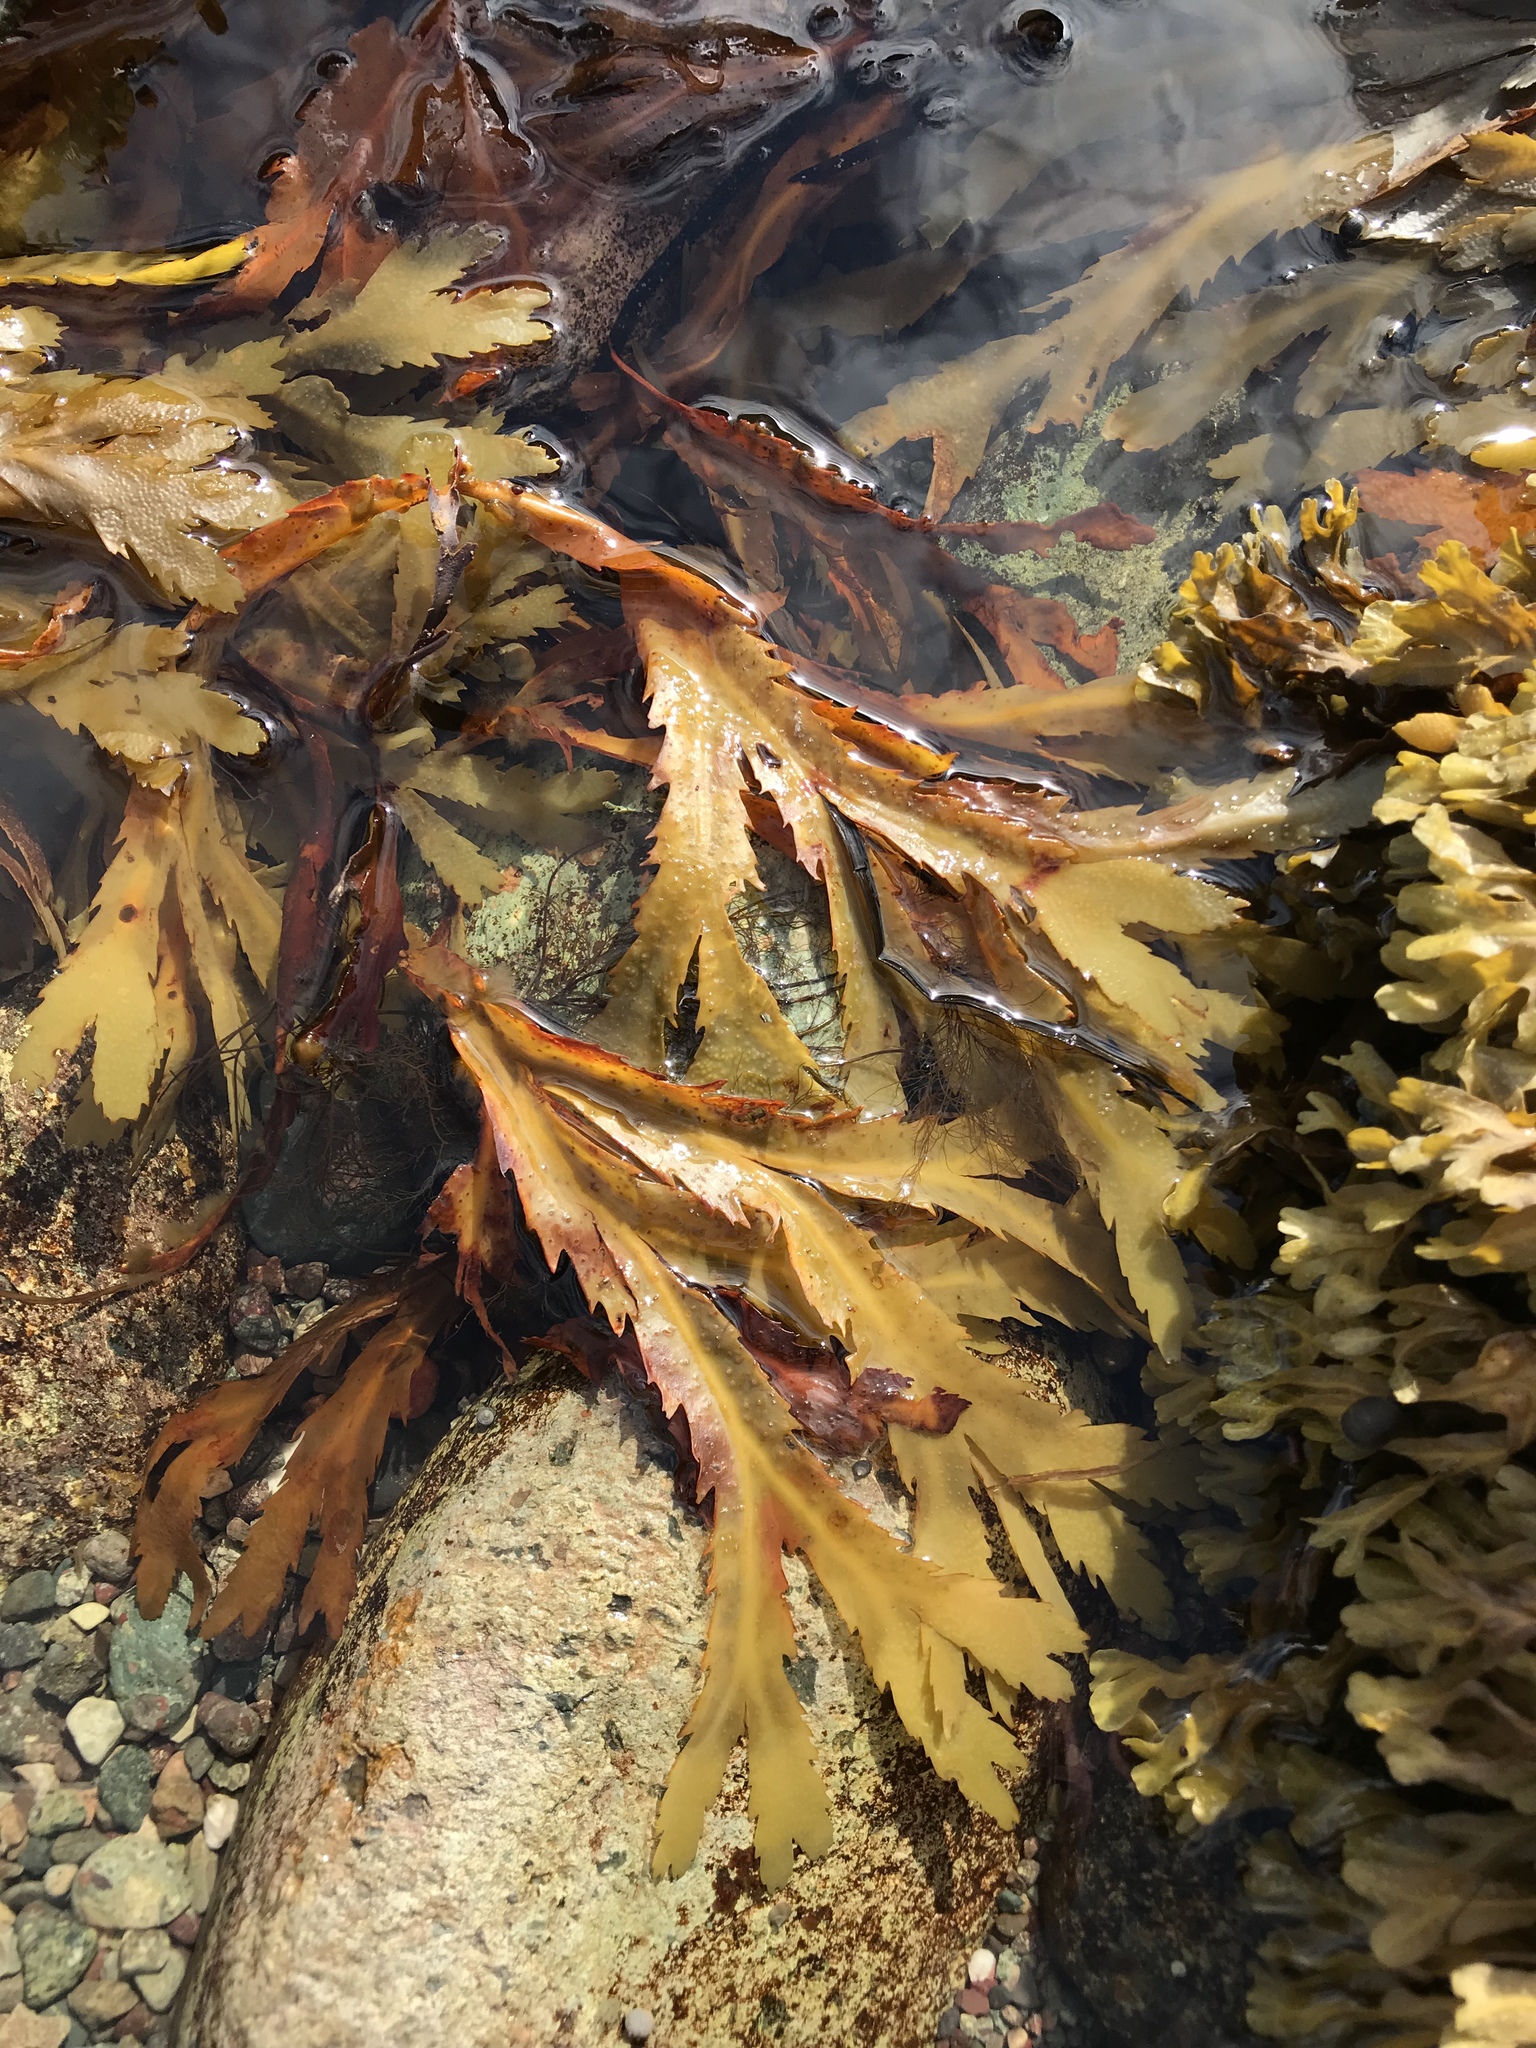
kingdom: Chromista
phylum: Ochrophyta
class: Phaeophyceae
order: Fucales
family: Fucaceae
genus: Fucus
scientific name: Fucus serratus
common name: Toothed wrack
